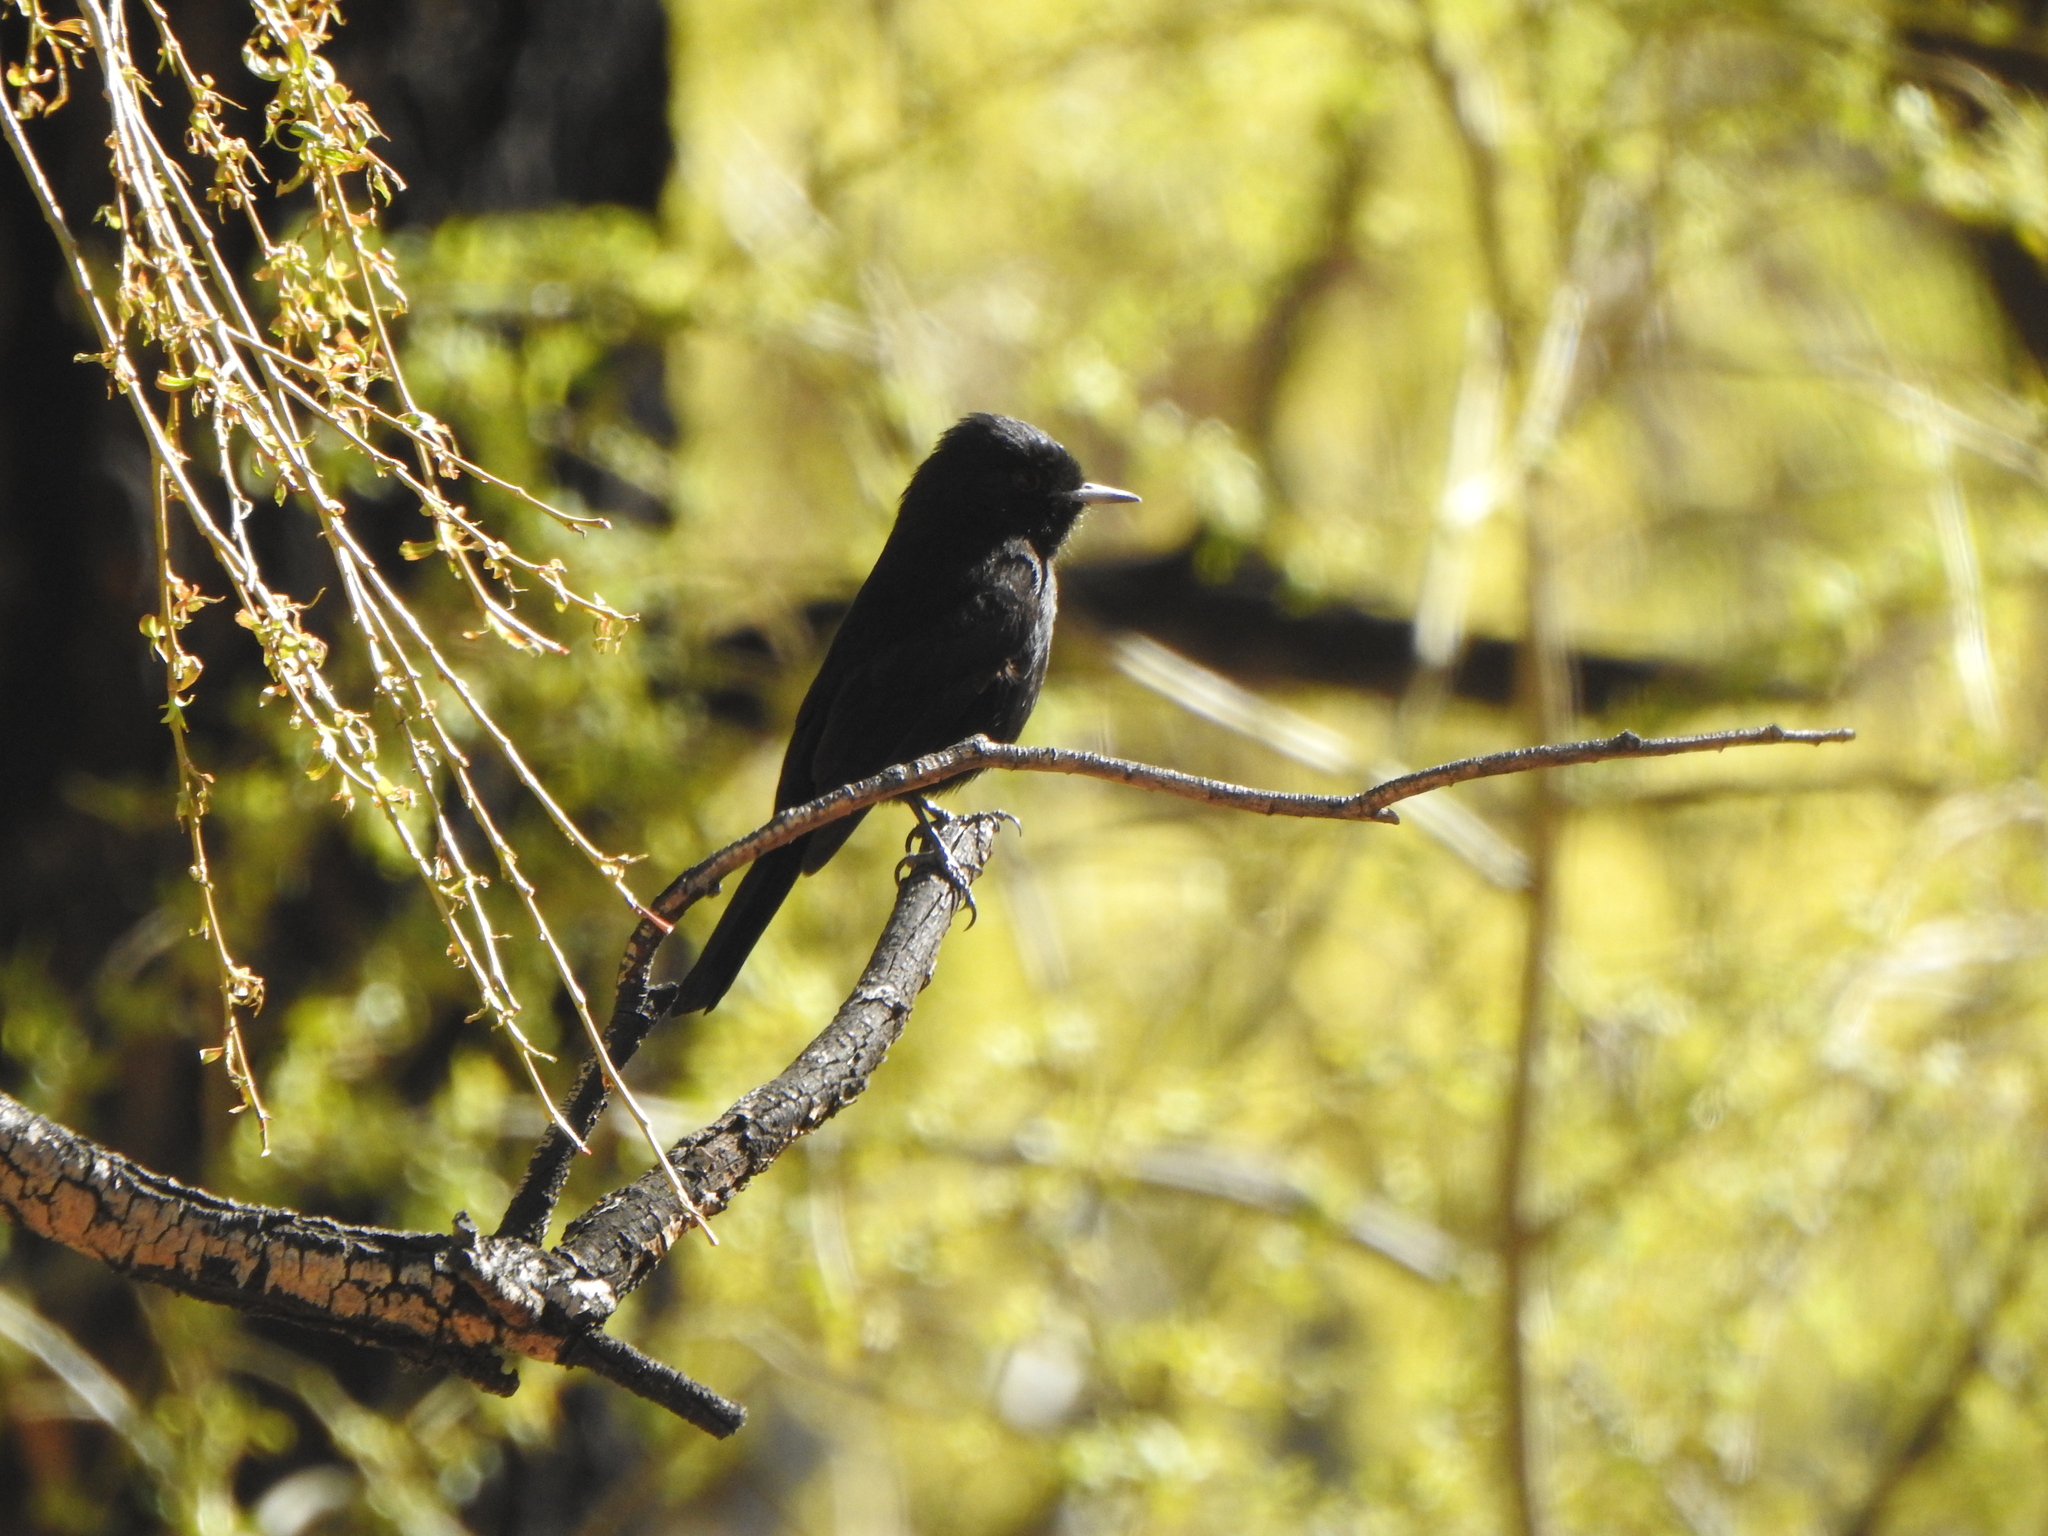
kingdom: Animalia
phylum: Chordata
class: Aves
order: Passeriformes
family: Tyrannidae
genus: Knipolegus
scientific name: Knipolegus aterrimus
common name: White-winged black tyrant
